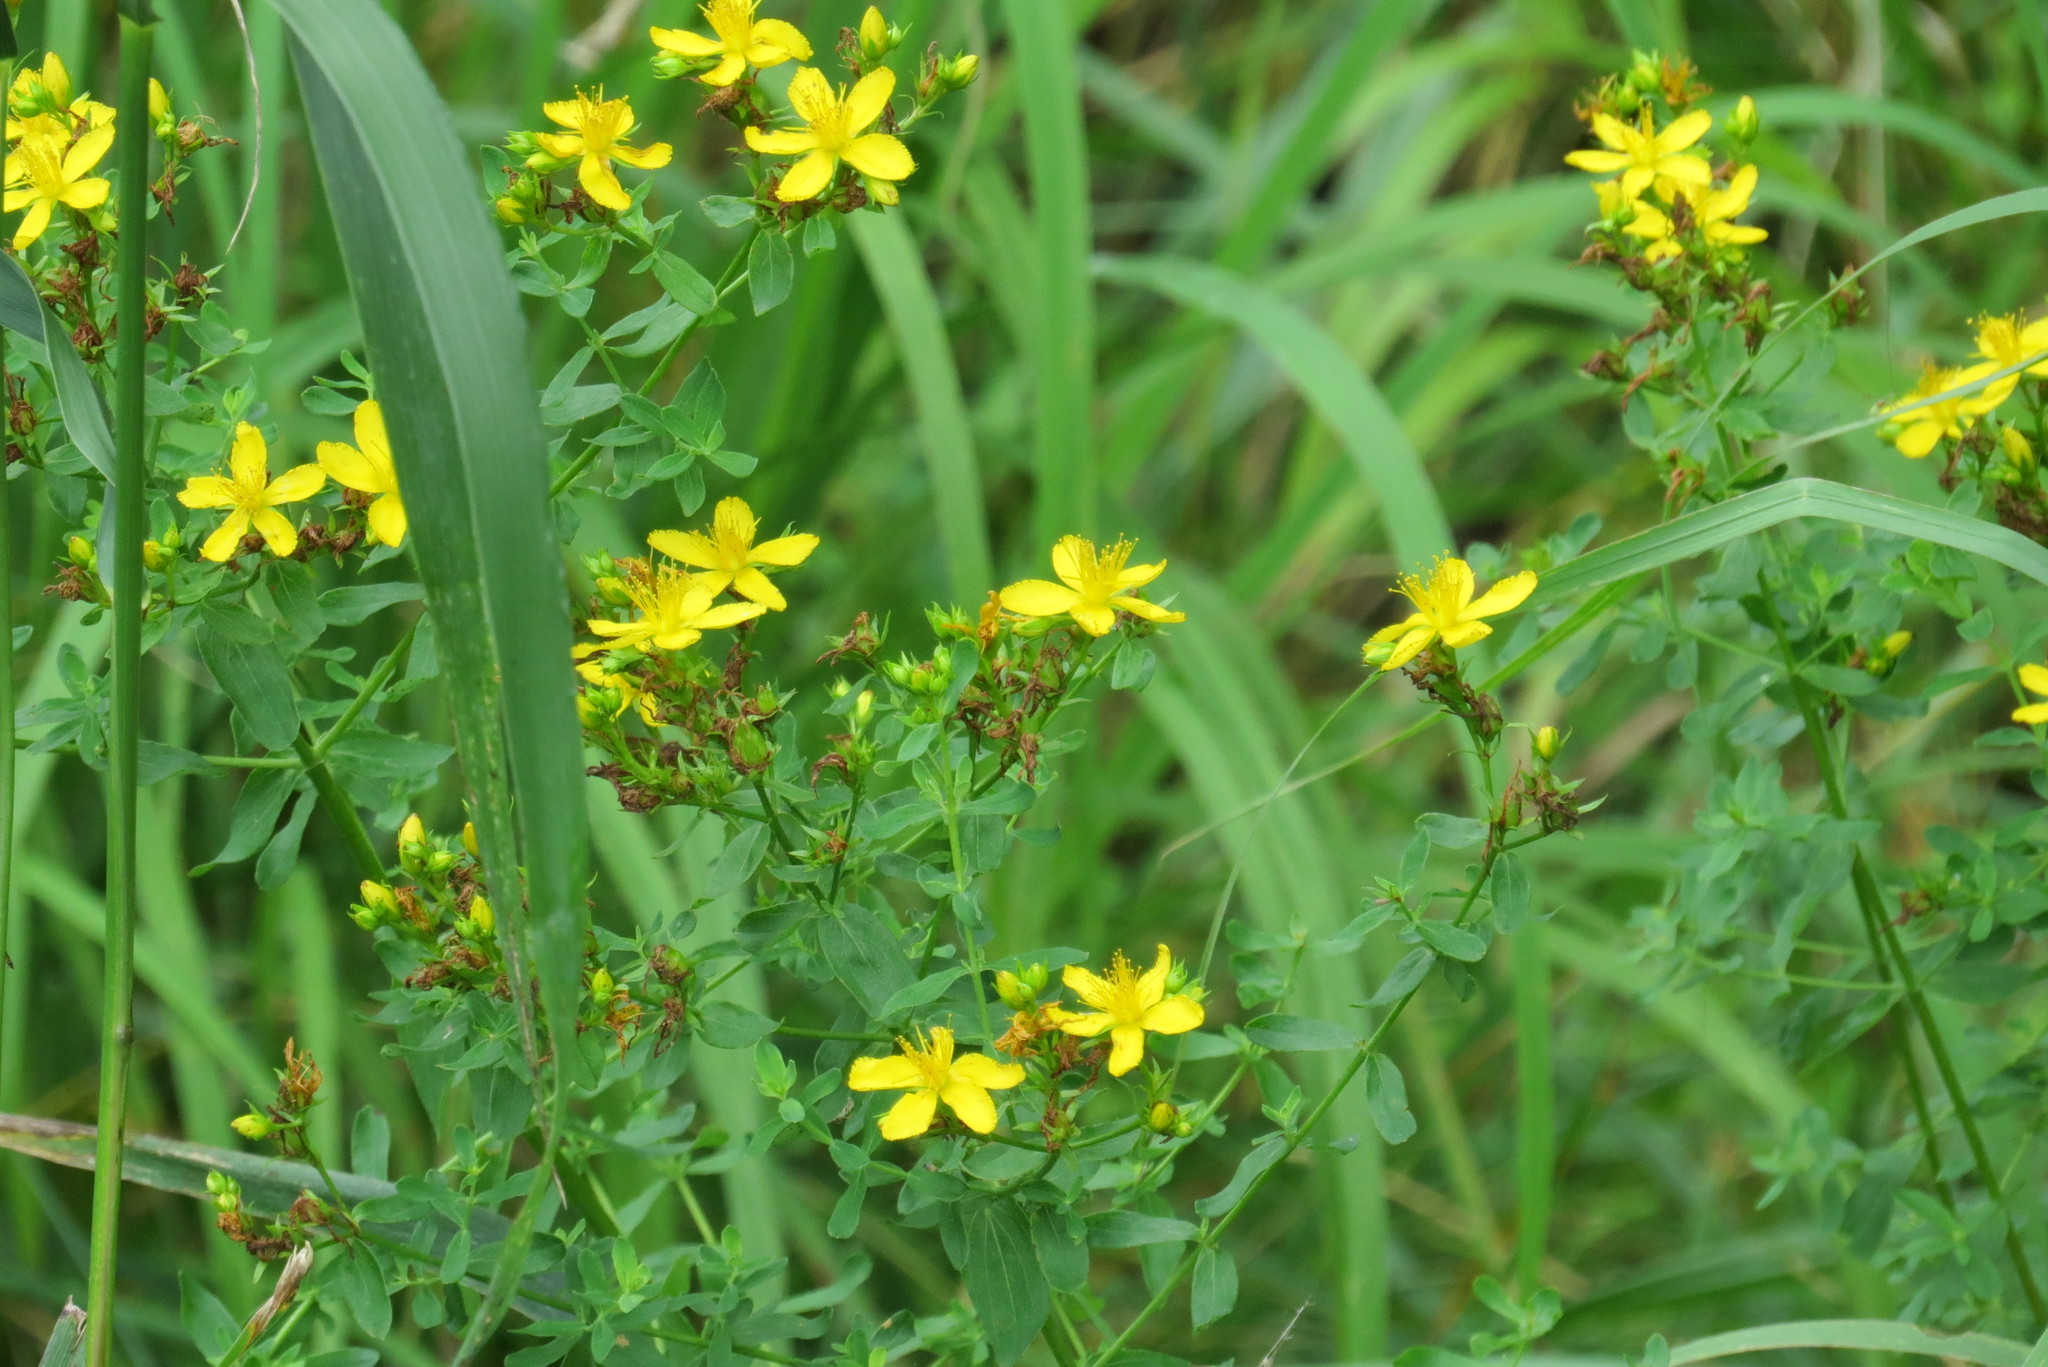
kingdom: Plantae
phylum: Tracheophyta
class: Magnoliopsida
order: Malpighiales
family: Hypericaceae
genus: Hypericum
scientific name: Hypericum perforatum
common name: Common st. johnswort
